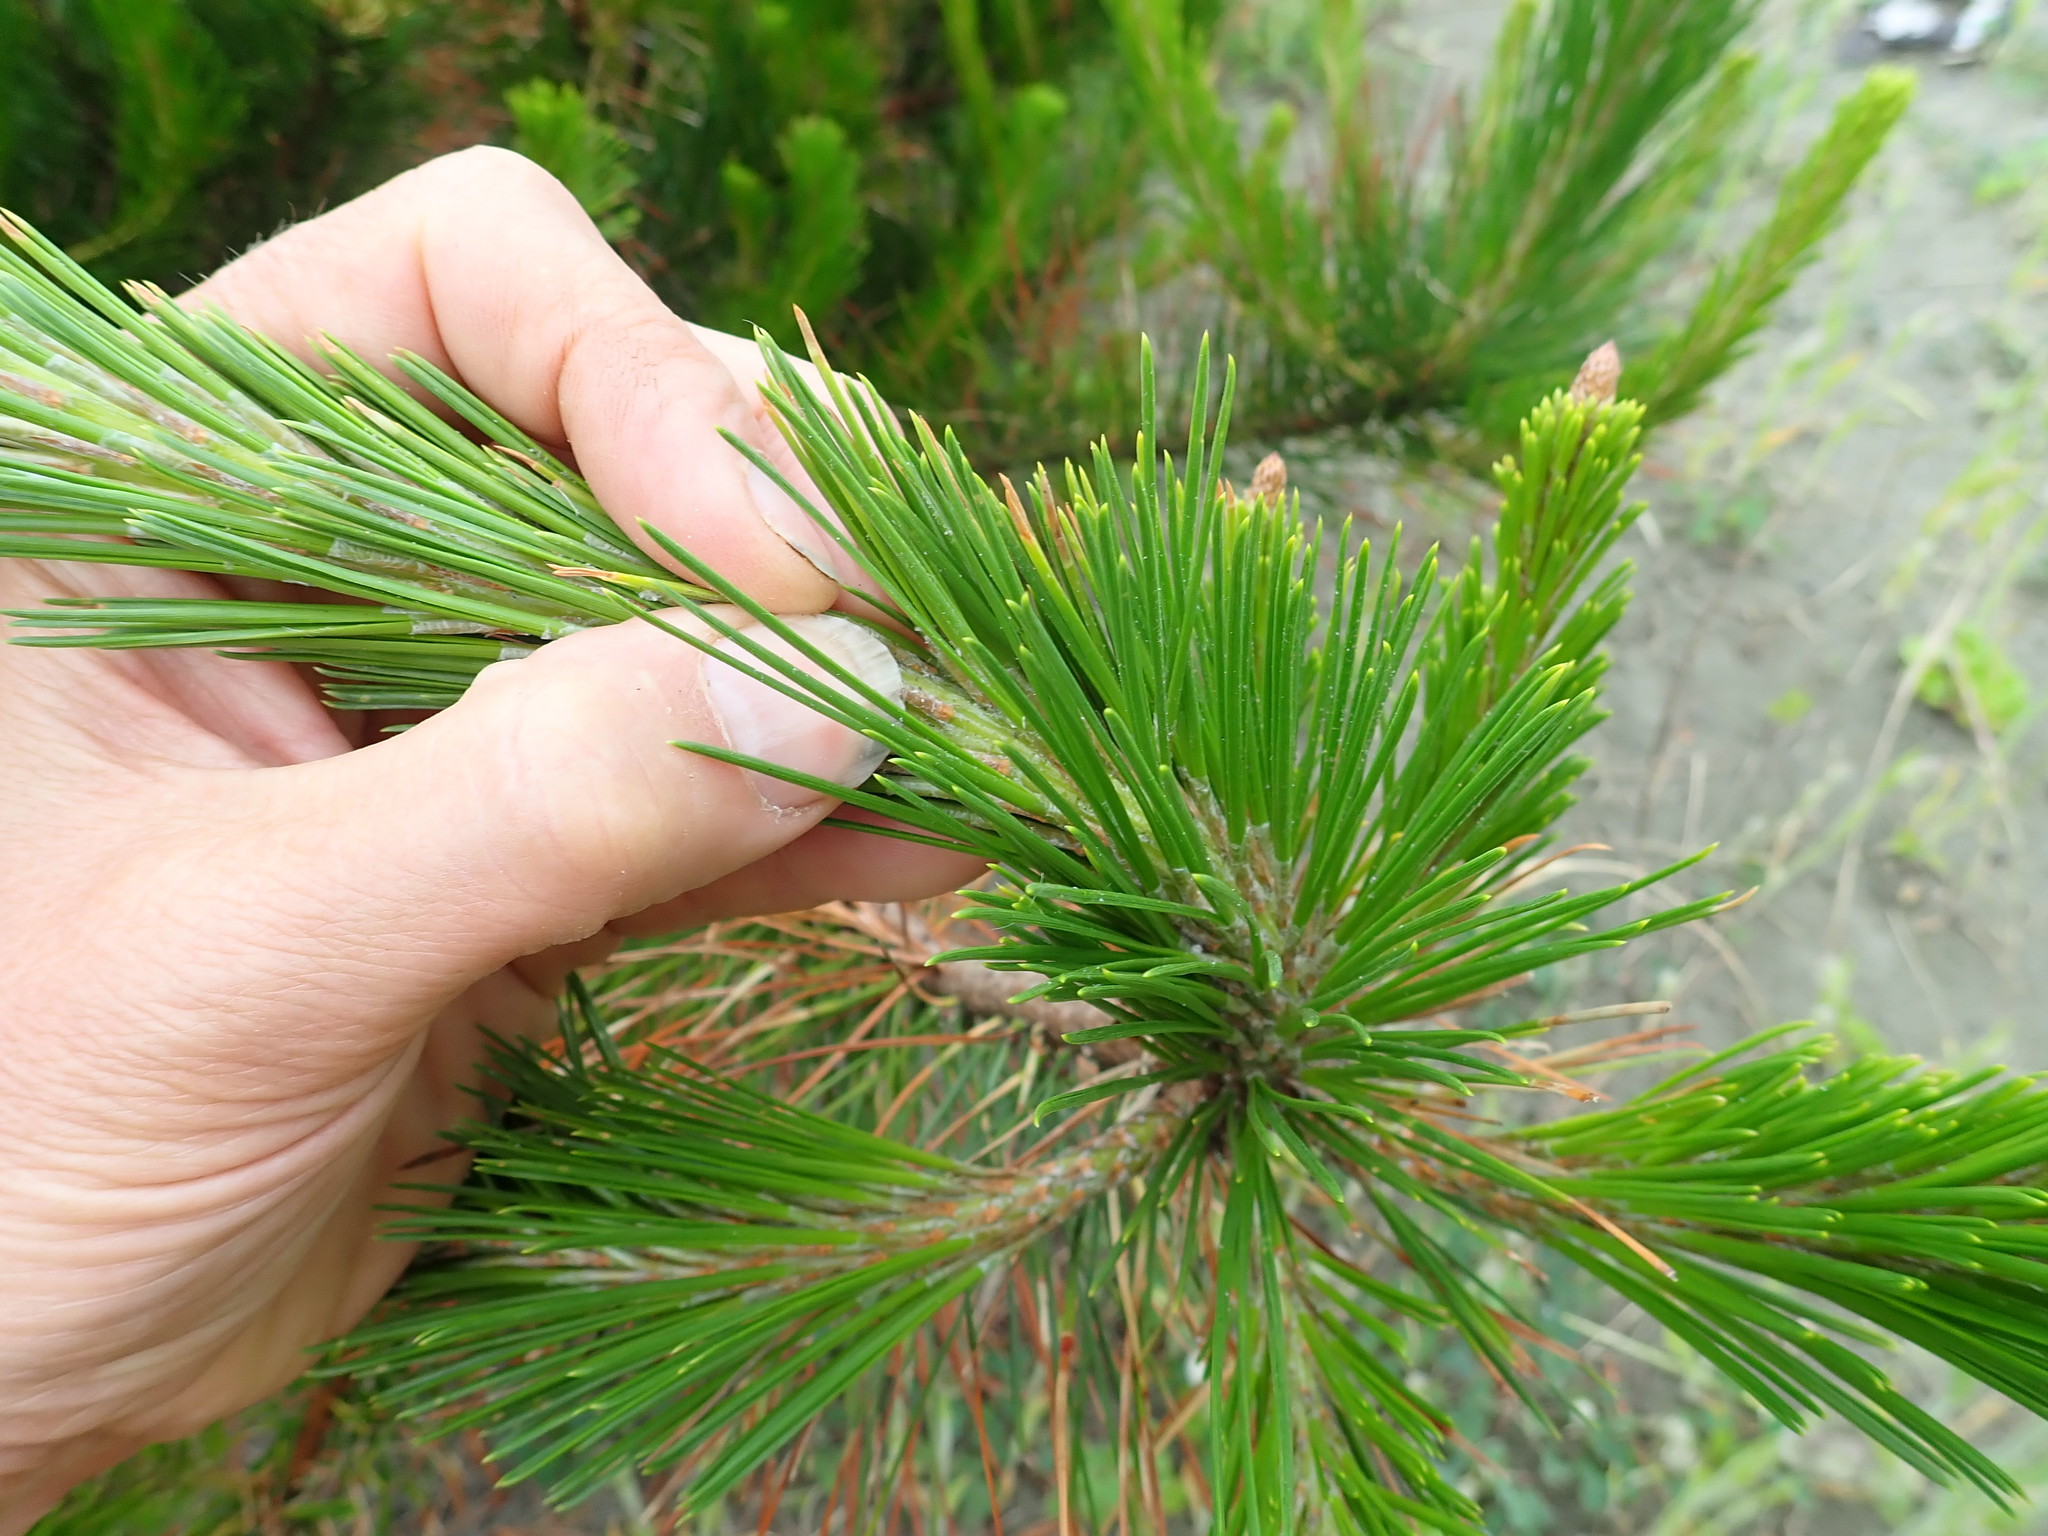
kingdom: Plantae
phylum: Tracheophyta
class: Pinopsida
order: Pinales
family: Pinaceae
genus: Pinus
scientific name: Pinus radiata
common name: Monterey pine
